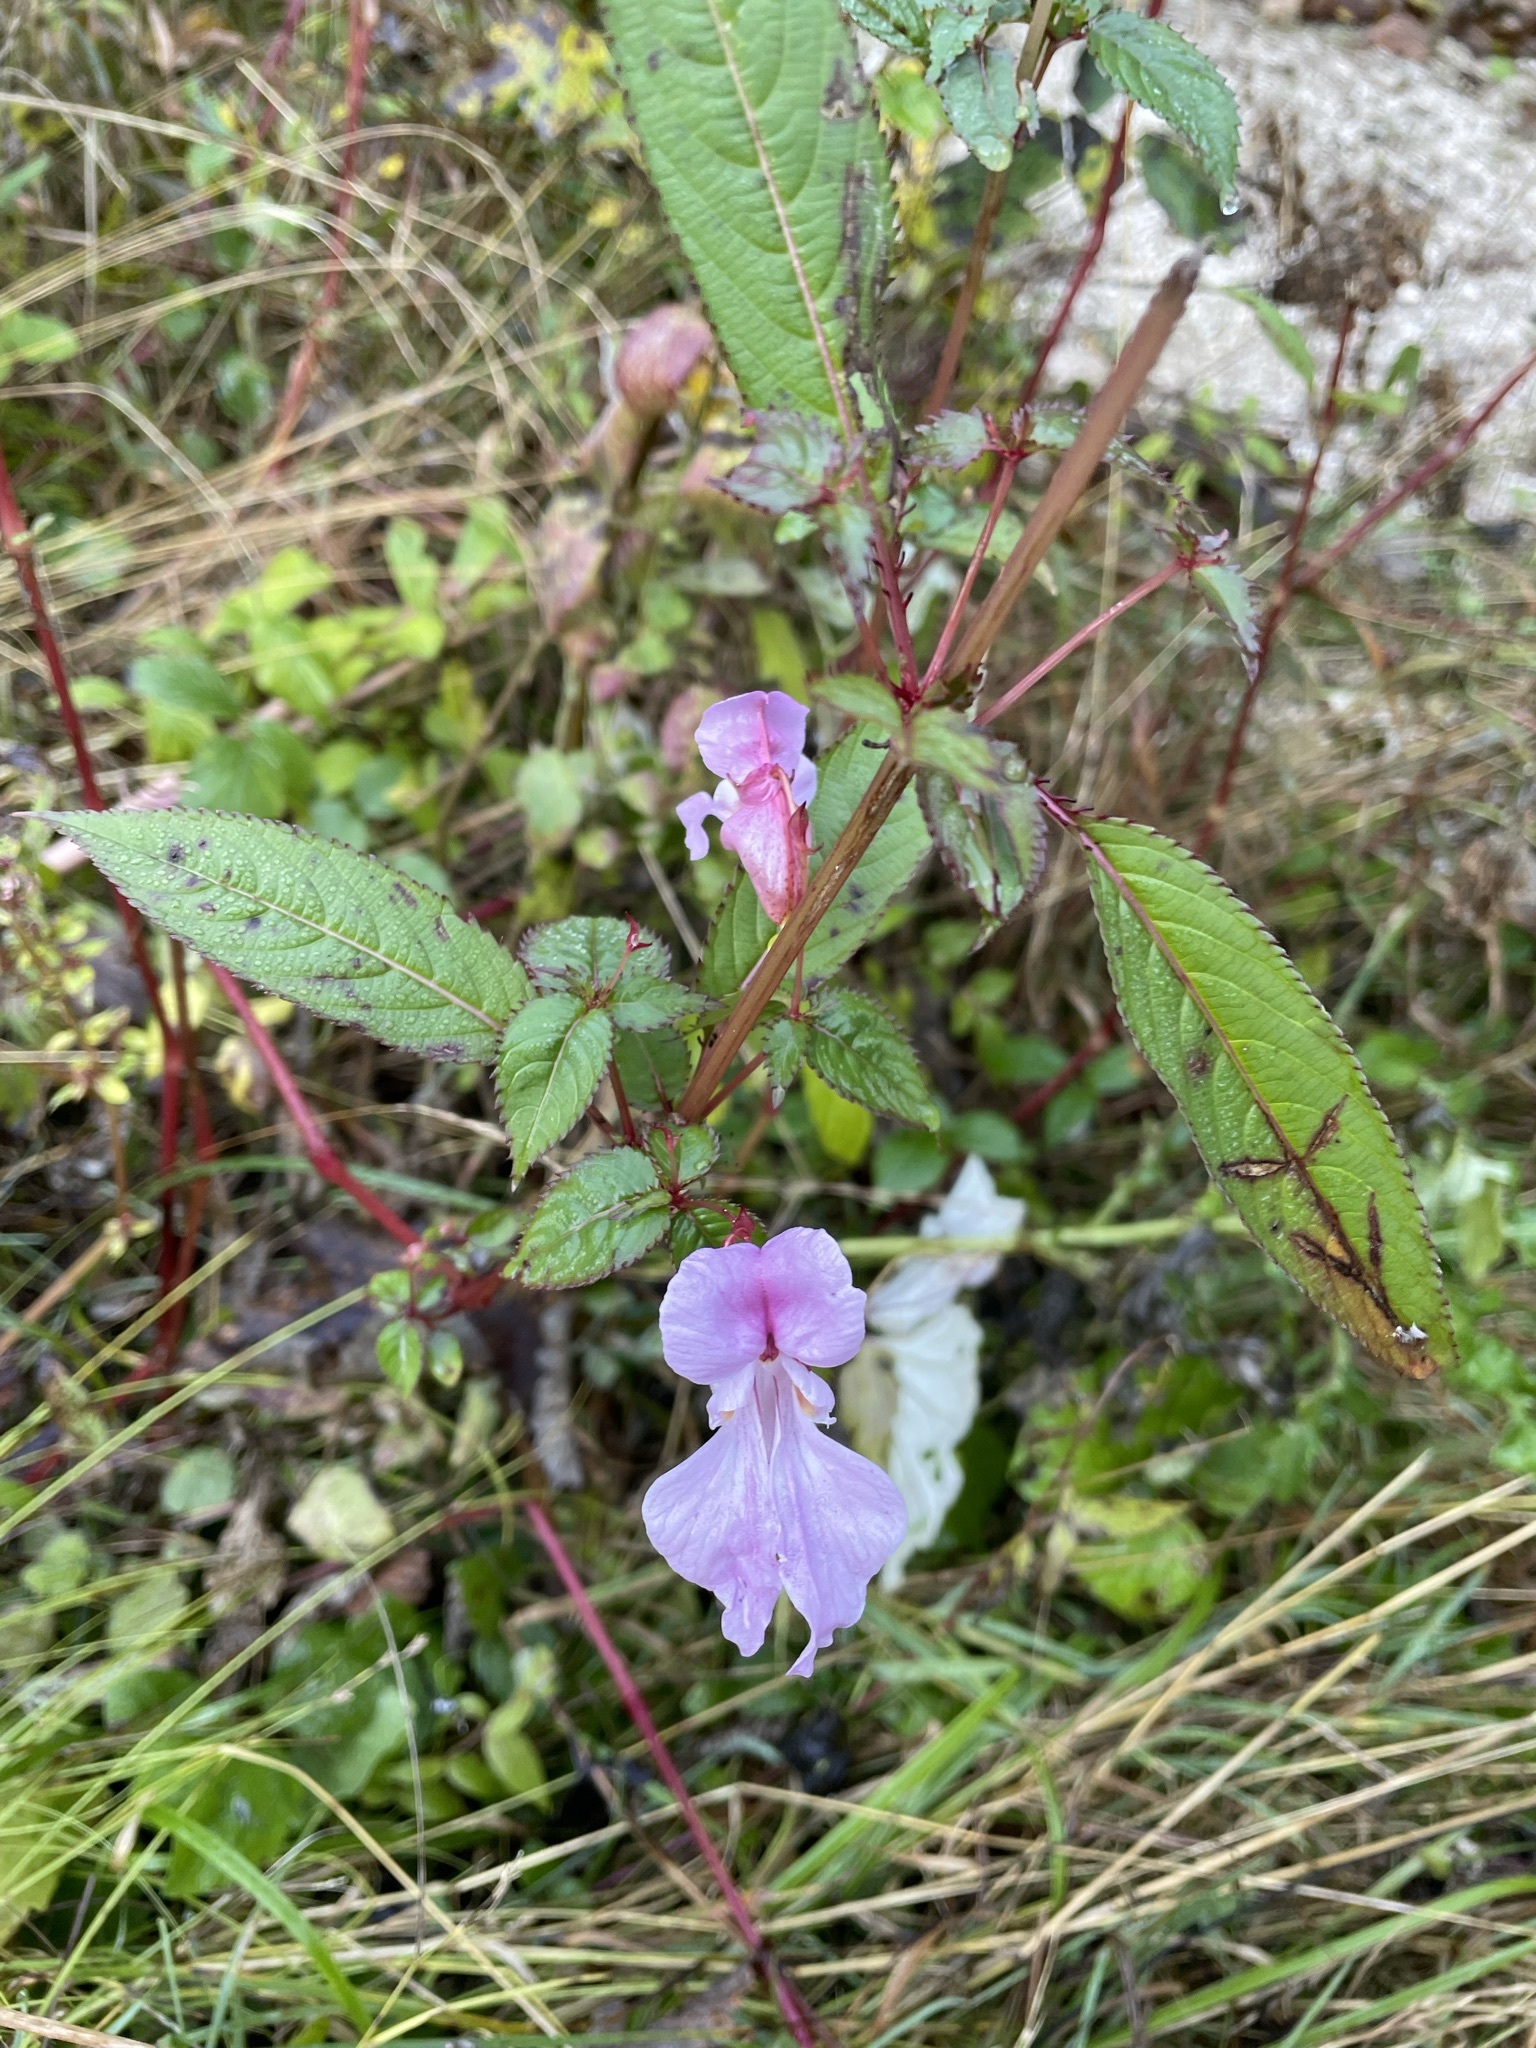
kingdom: Plantae
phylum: Tracheophyta
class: Magnoliopsida
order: Ericales
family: Balsaminaceae
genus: Impatiens
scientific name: Impatiens glandulifera
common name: Himalayan balsam
